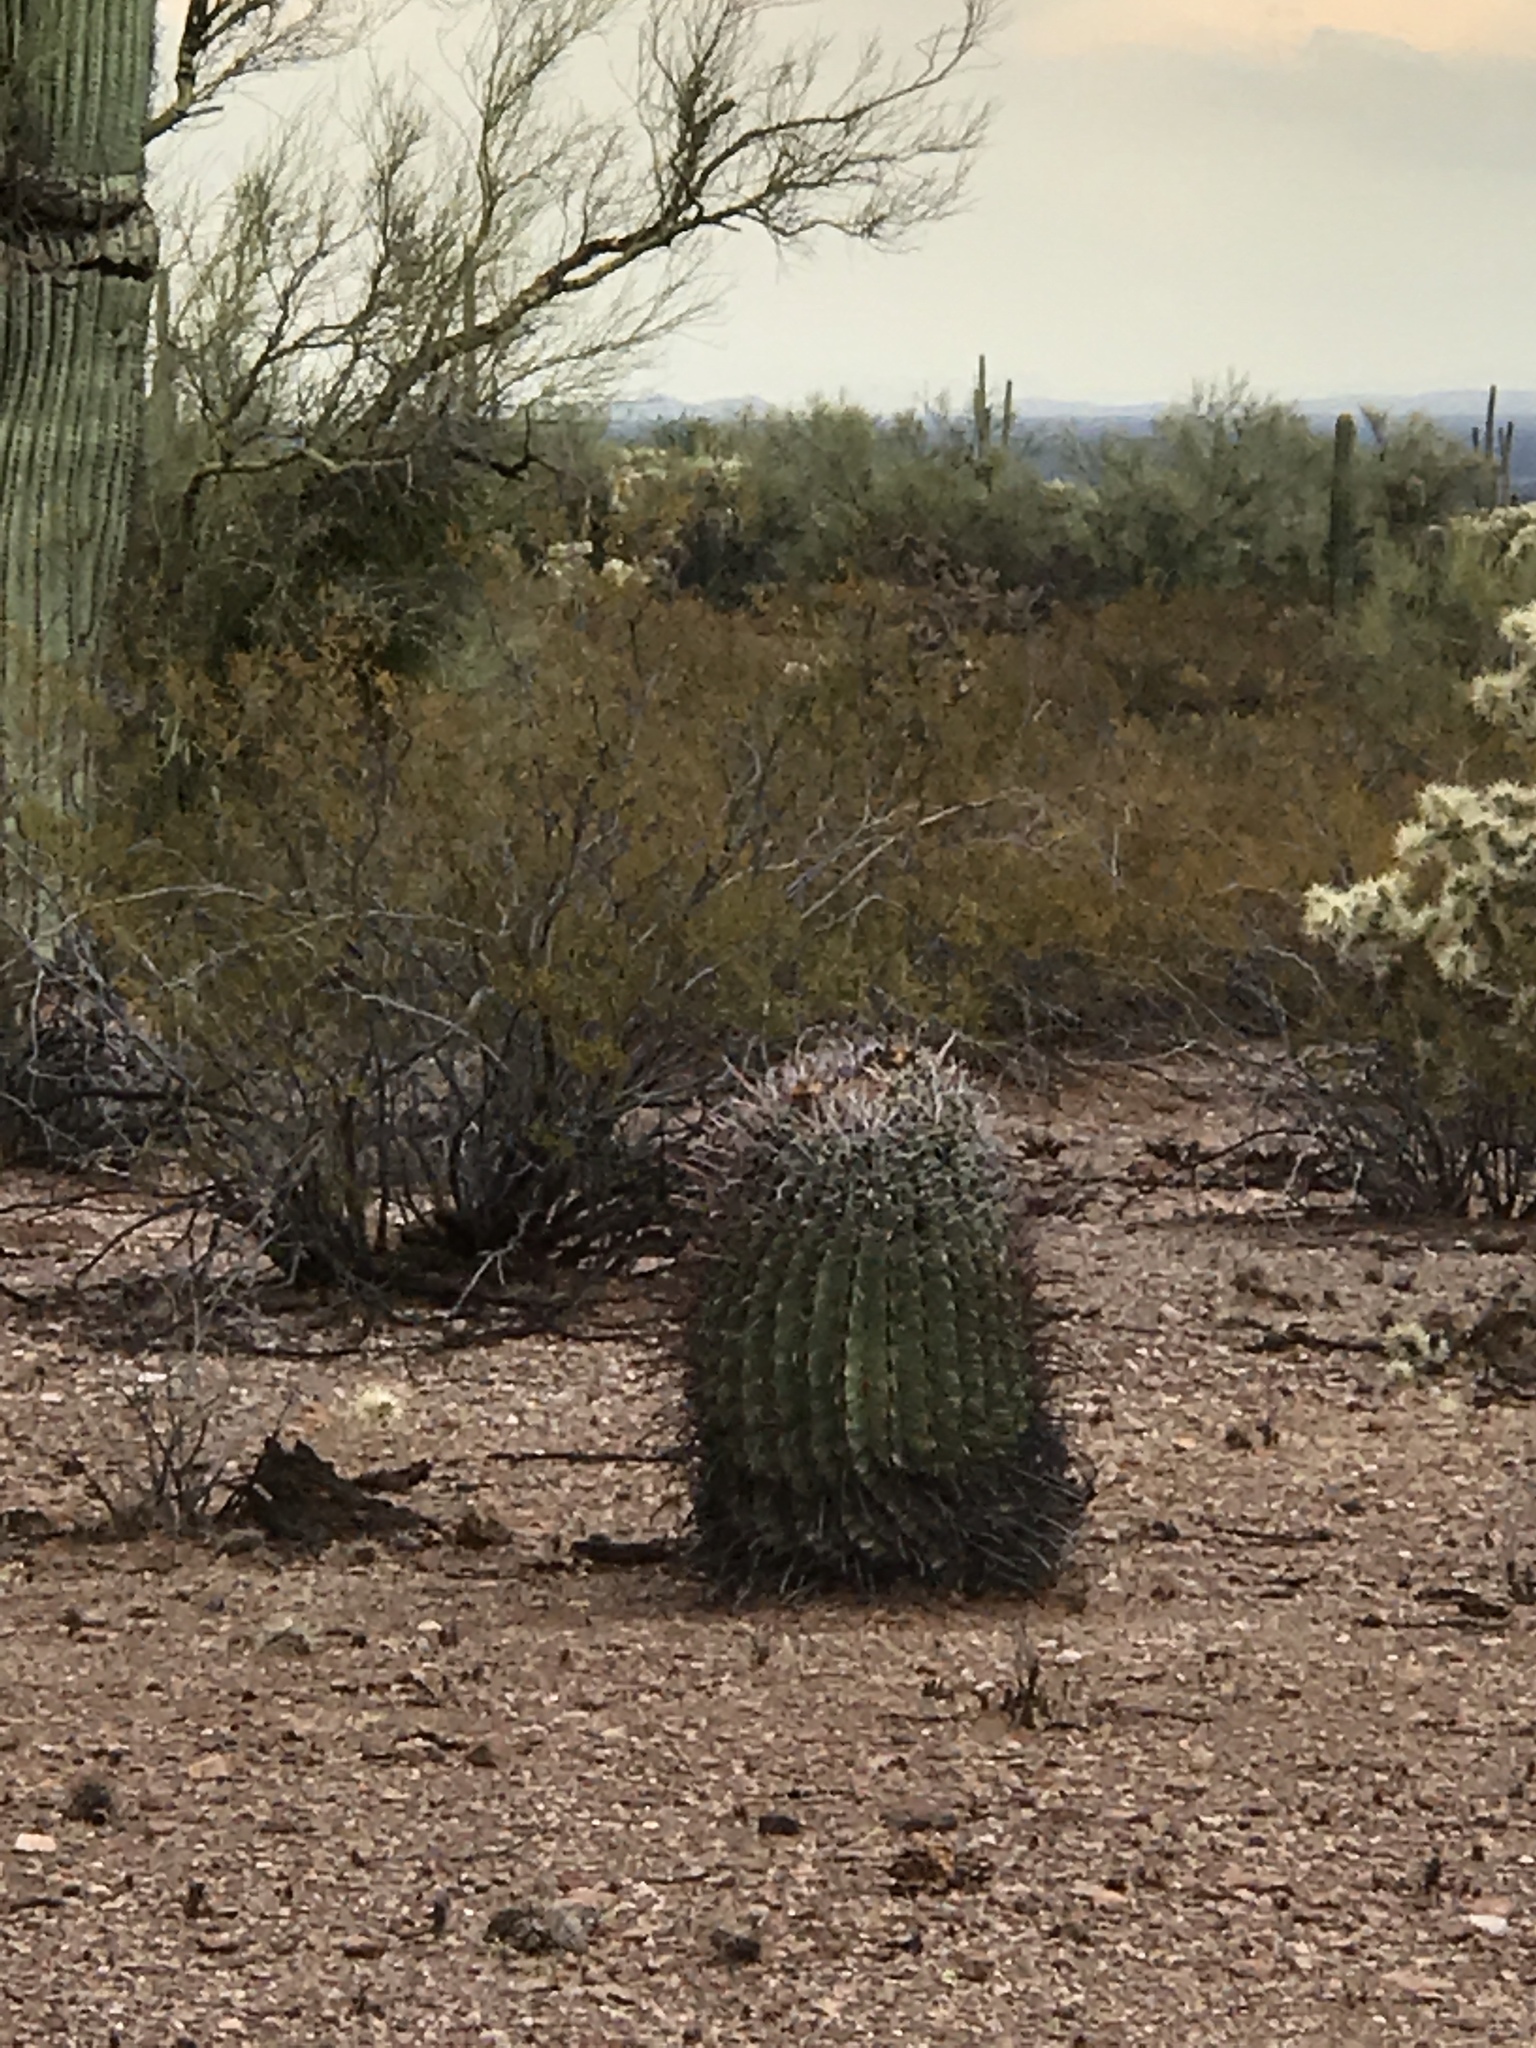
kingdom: Plantae
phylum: Tracheophyta
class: Magnoliopsida
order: Caryophyllales
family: Cactaceae
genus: Ferocactus
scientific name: Ferocactus wislizeni
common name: Candy barrel cactus
